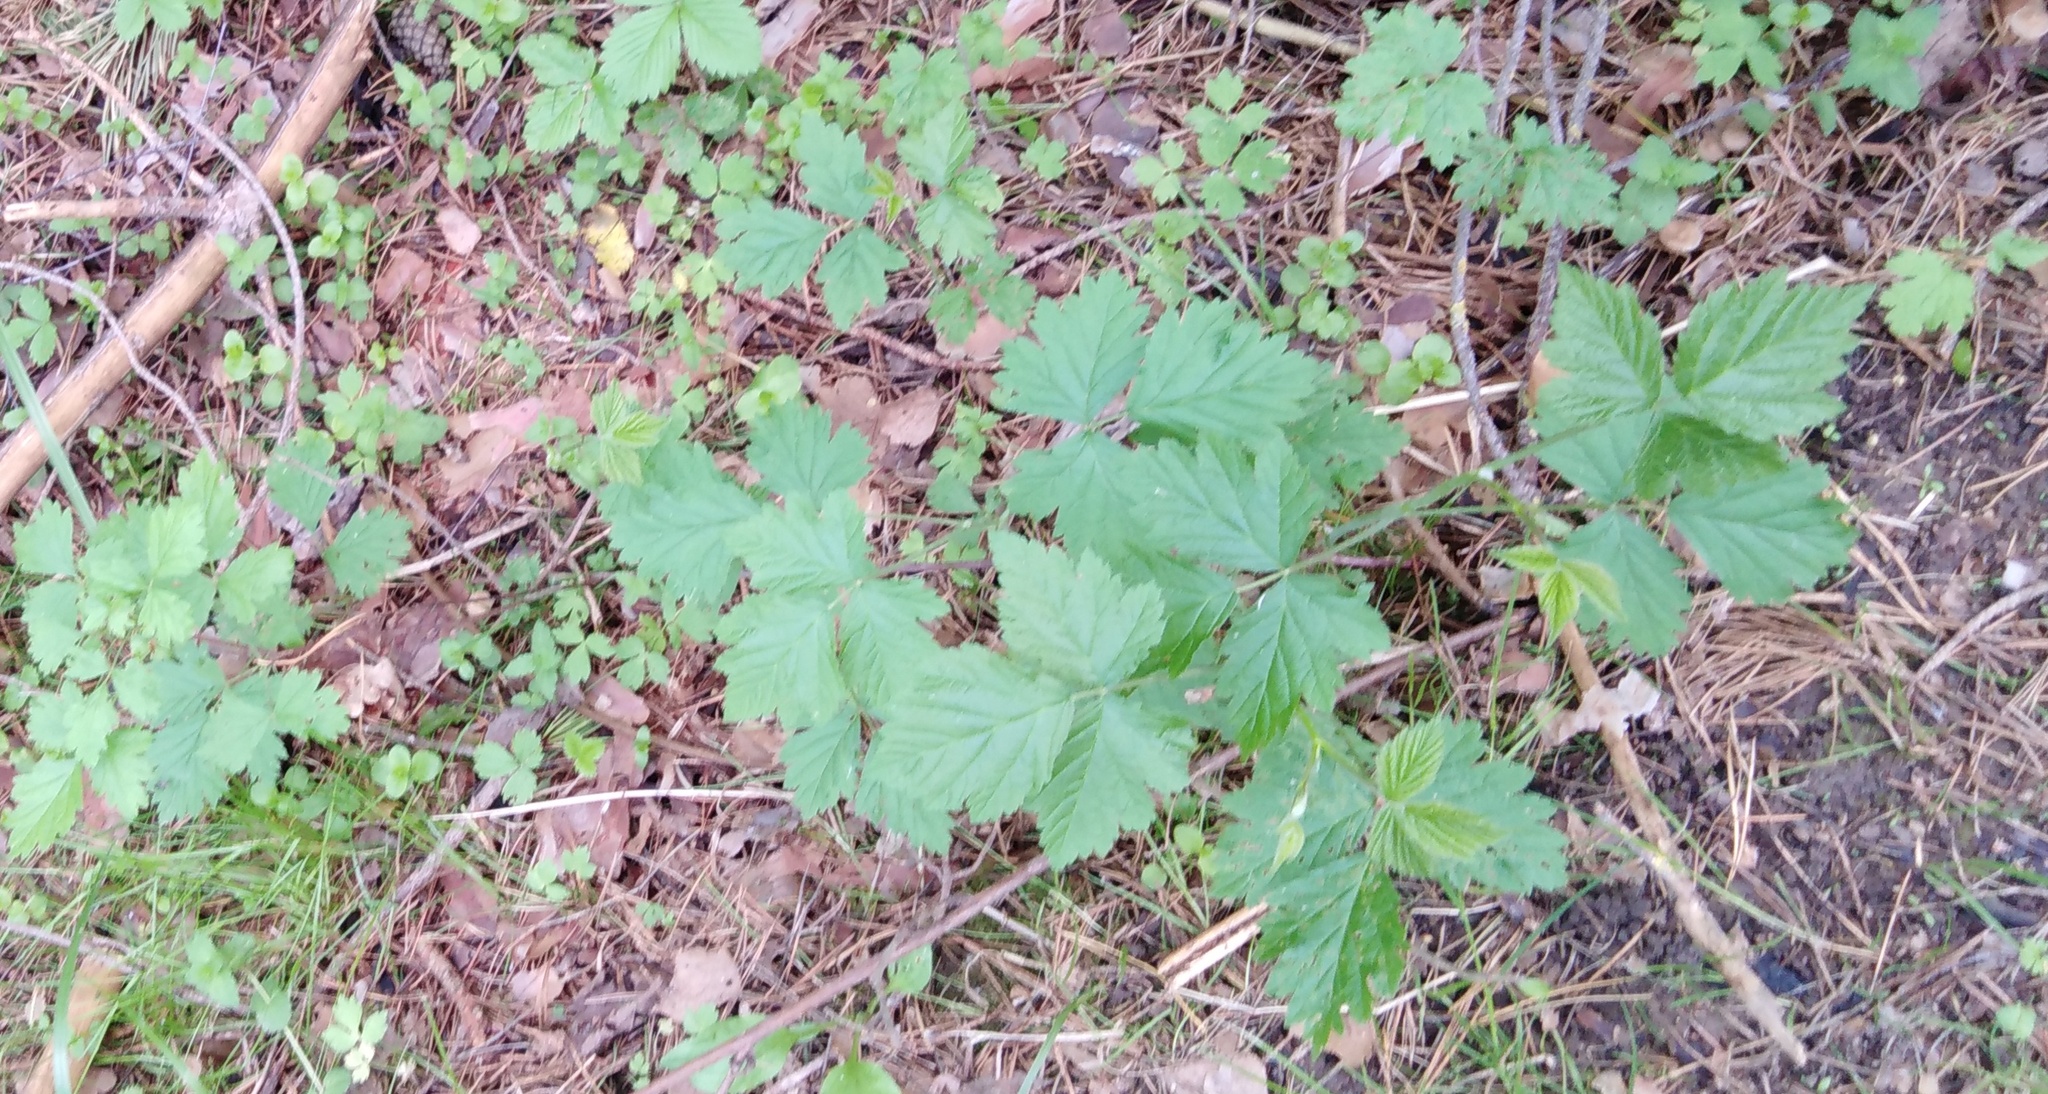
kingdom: Plantae
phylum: Tracheophyta
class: Magnoliopsida
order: Rosales
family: Rosaceae
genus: Rubus
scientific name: Rubus caesius
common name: Dewberry
